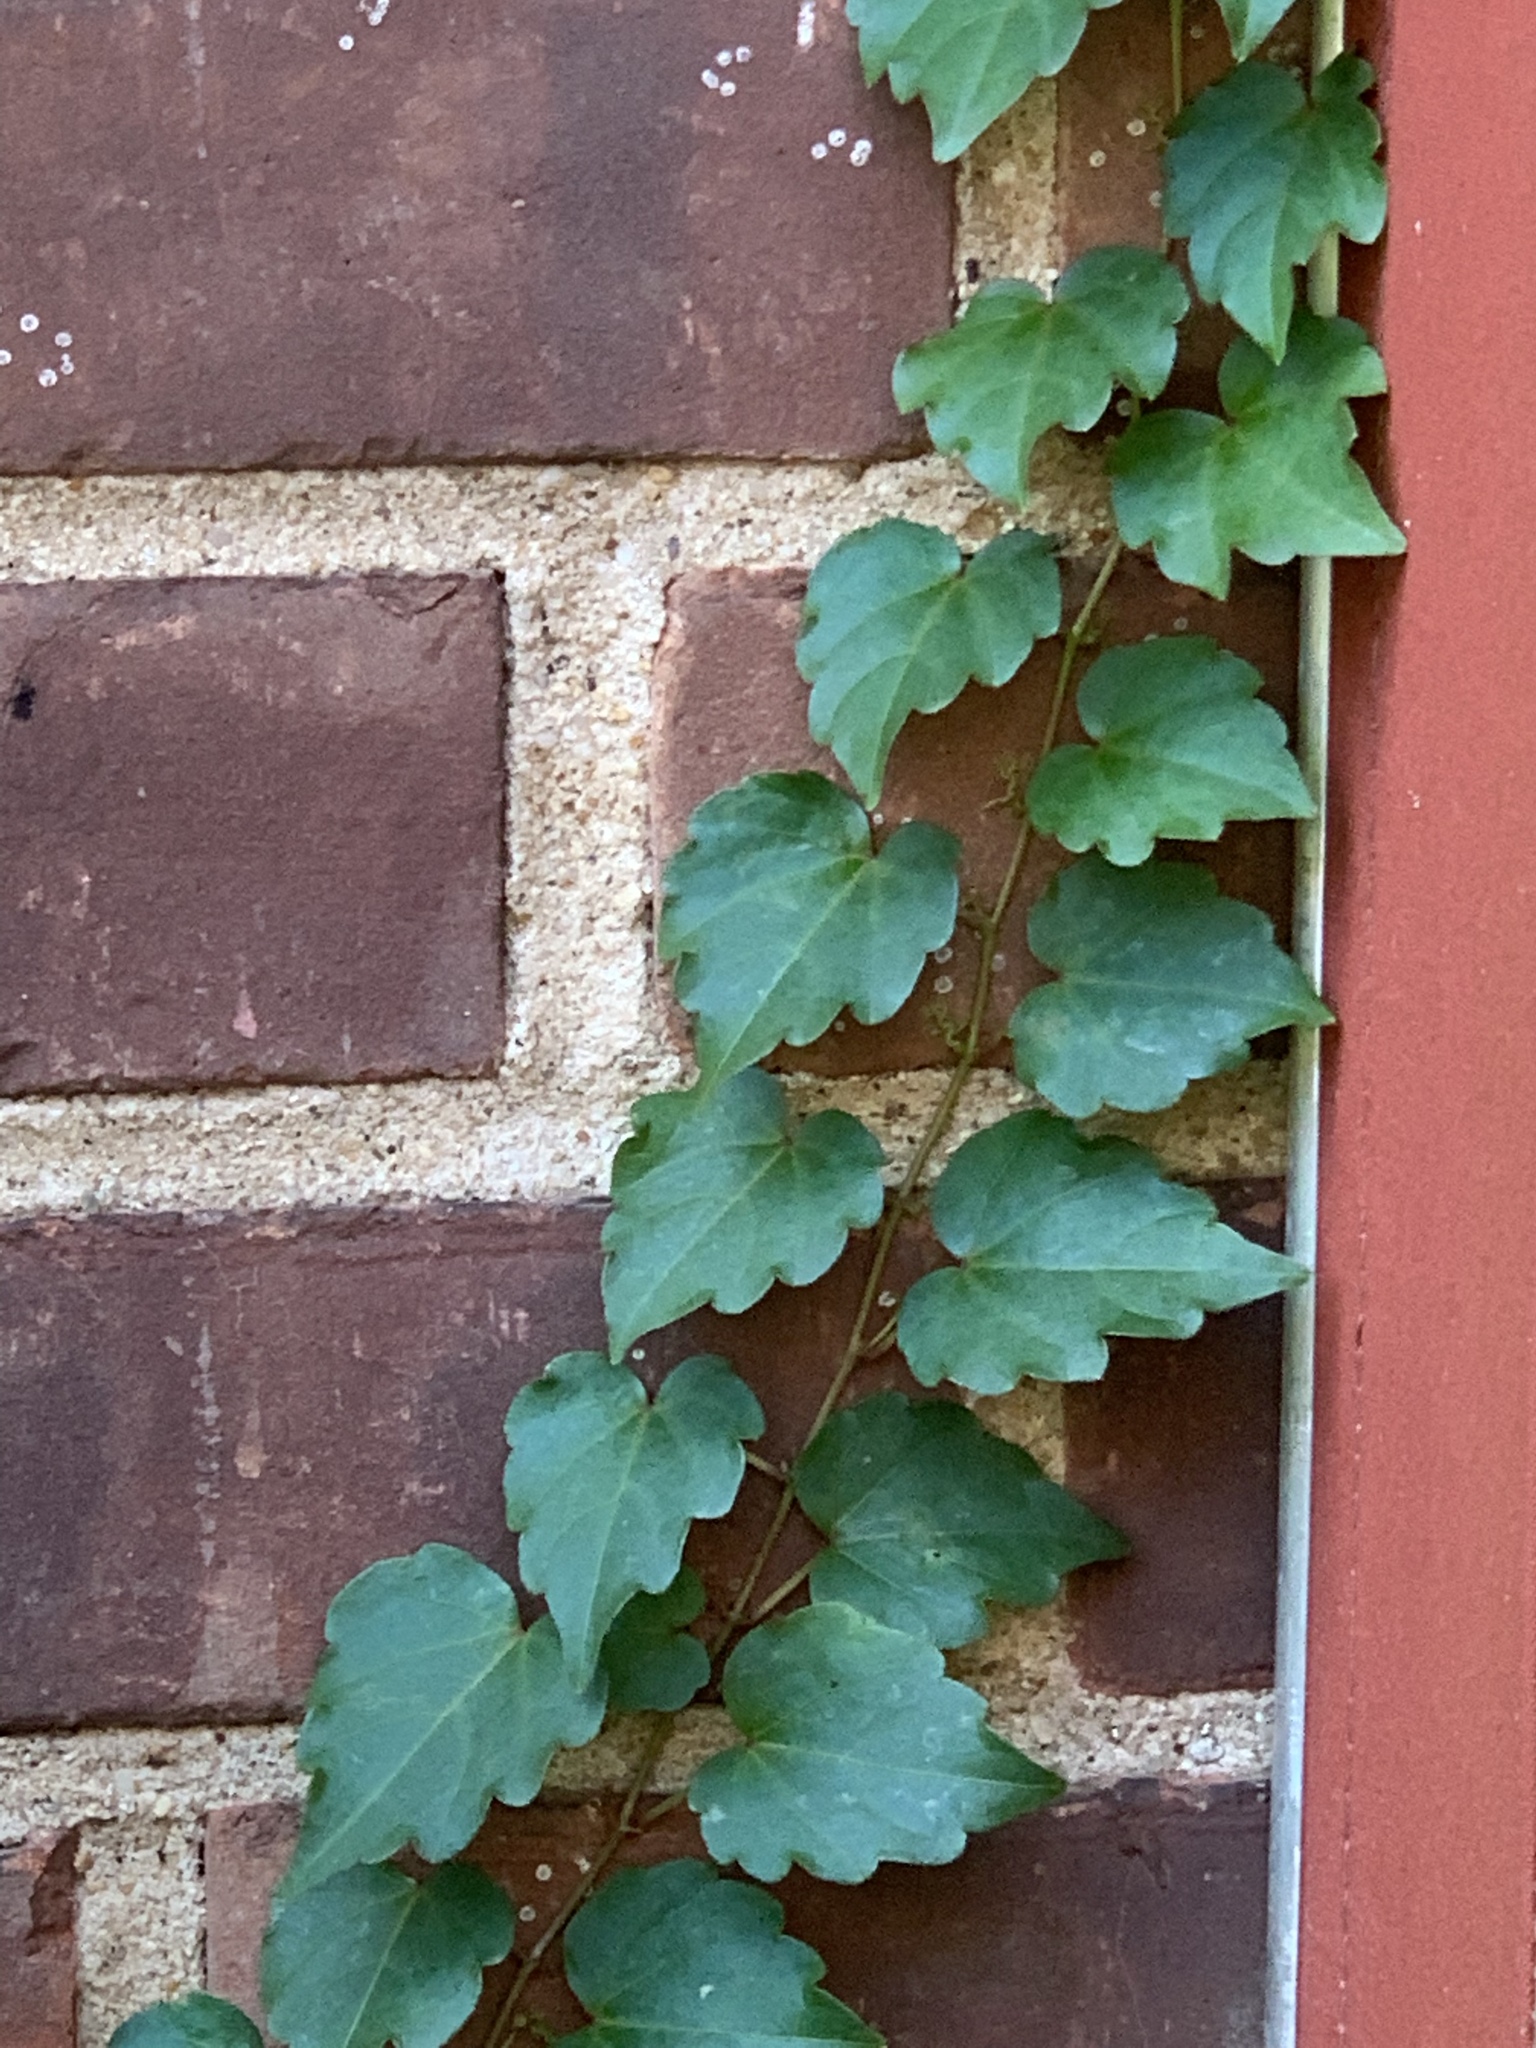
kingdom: Plantae
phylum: Tracheophyta
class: Magnoliopsida
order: Vitales
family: Vitaceae
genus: Parthenocissus
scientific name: Parthenocissus tricuspidata
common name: Boston ivy
